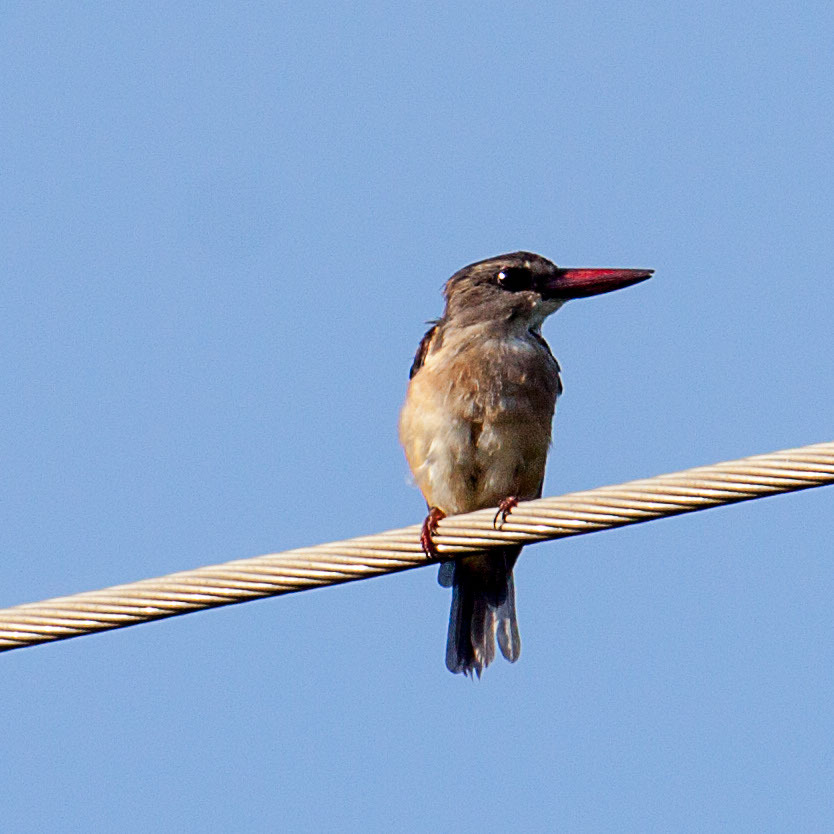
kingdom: Animalia
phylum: Chordata
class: Aves
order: Coraciiformes
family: Alcedinidae
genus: Halcyon
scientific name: Halcyon albiventris
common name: Brown-hooded kingfisher
